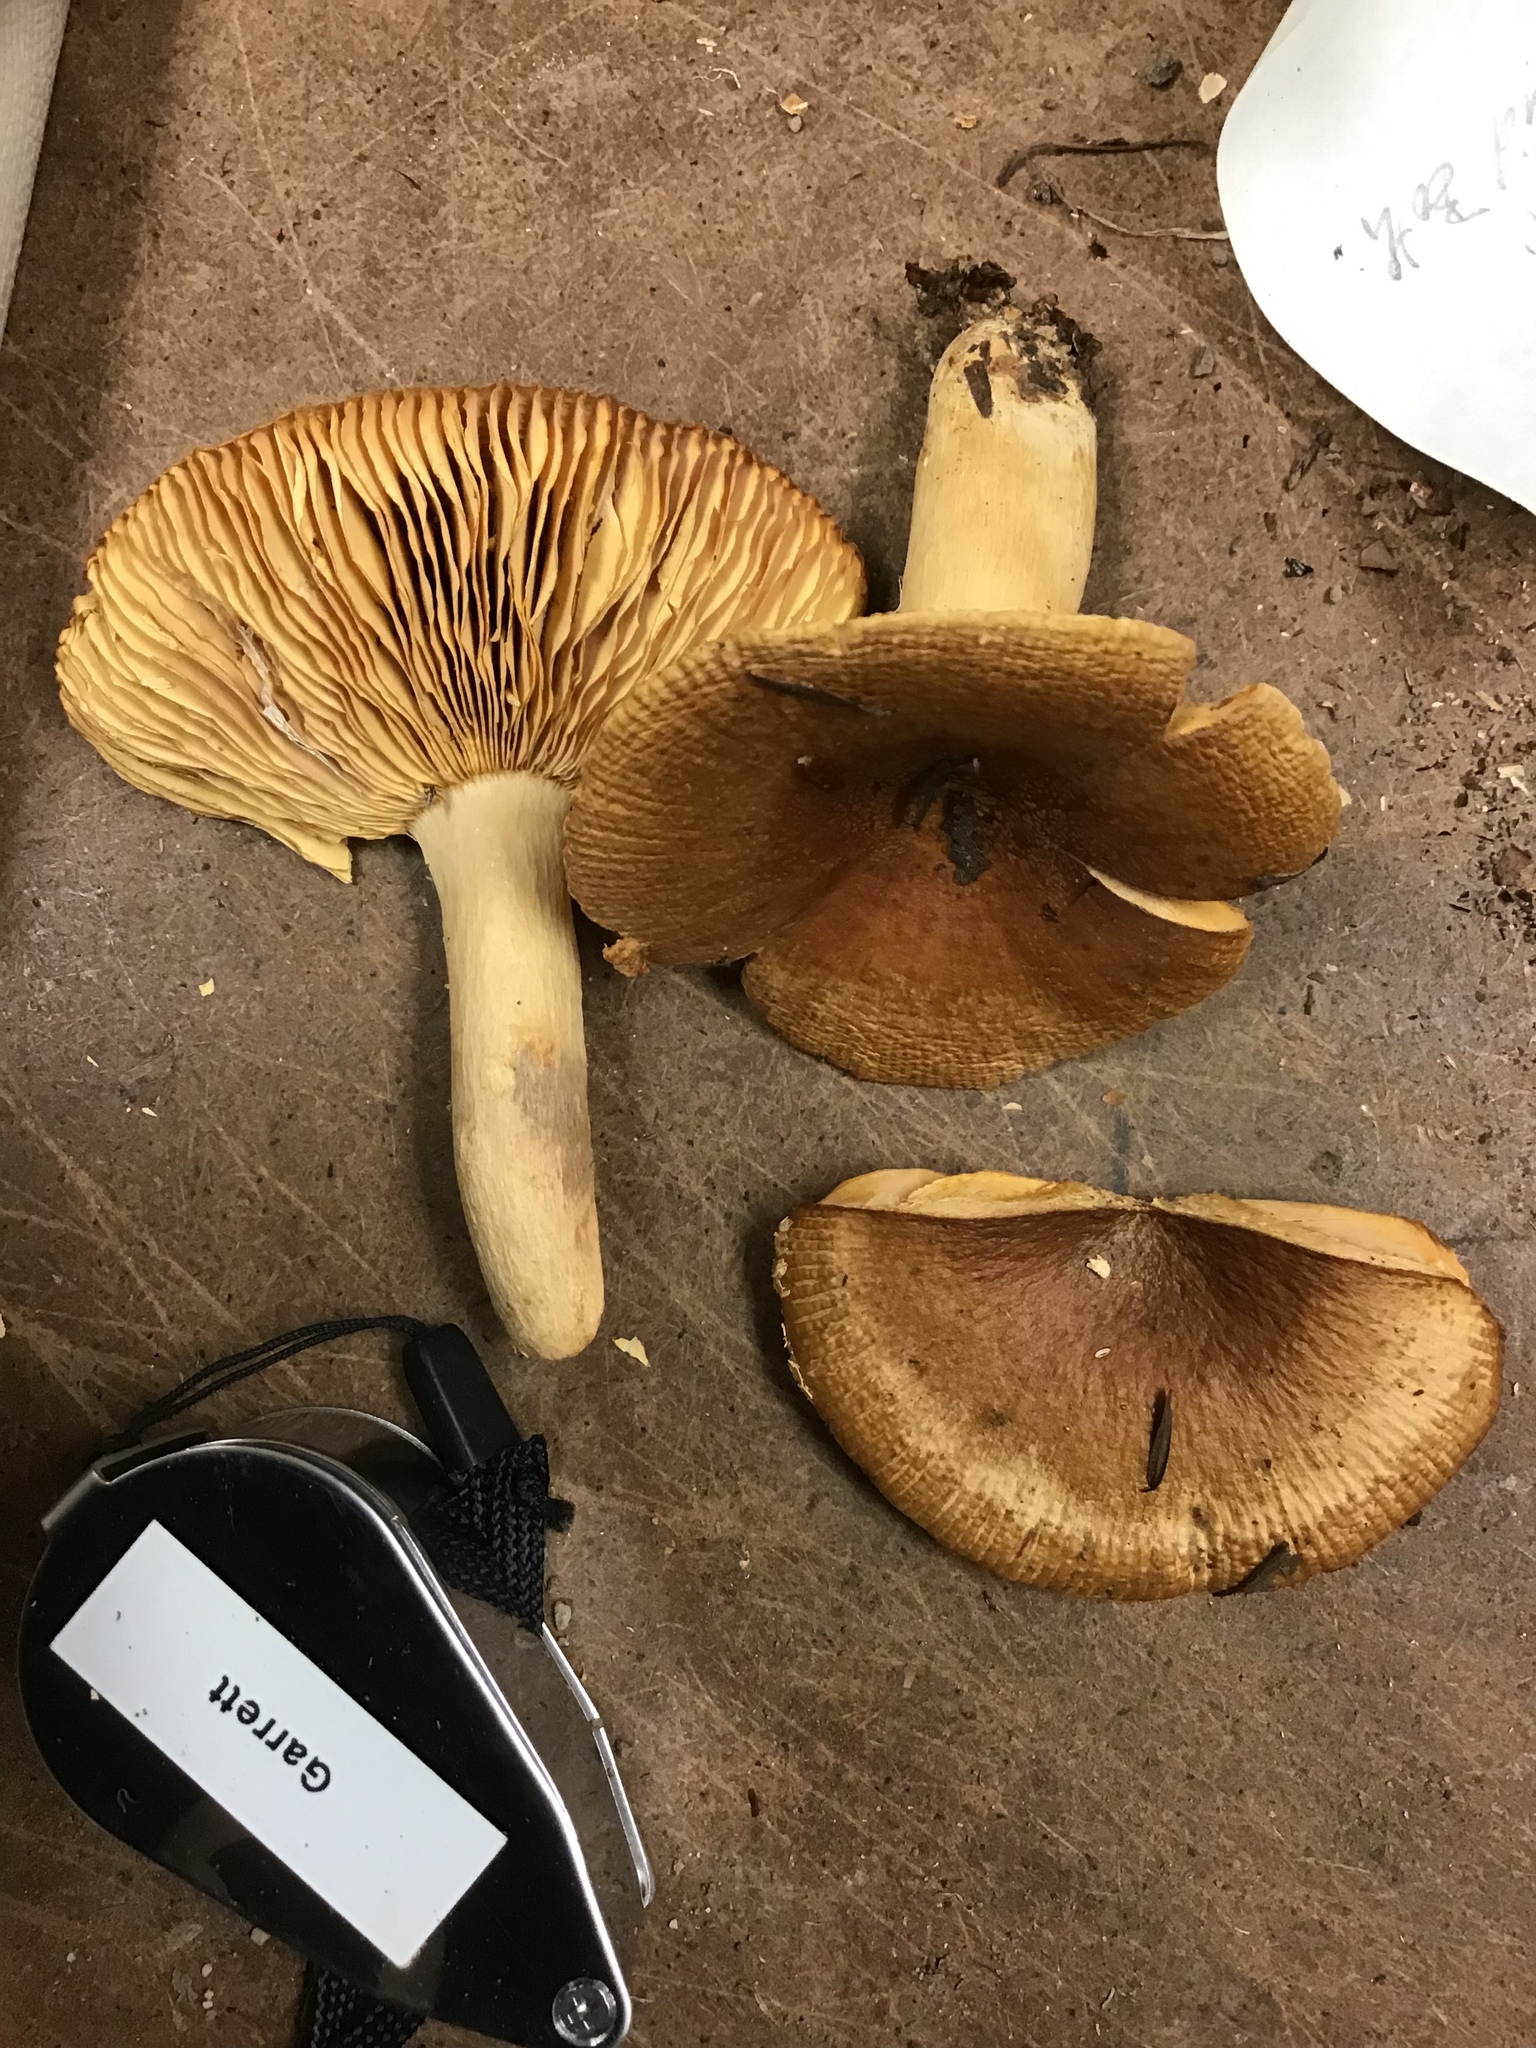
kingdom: Fungi
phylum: Basidiomycota
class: Agaricomycetes
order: Russulales
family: Russulaceae
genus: Russula
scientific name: Russula subfoetens
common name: Least stinking brittlegill
